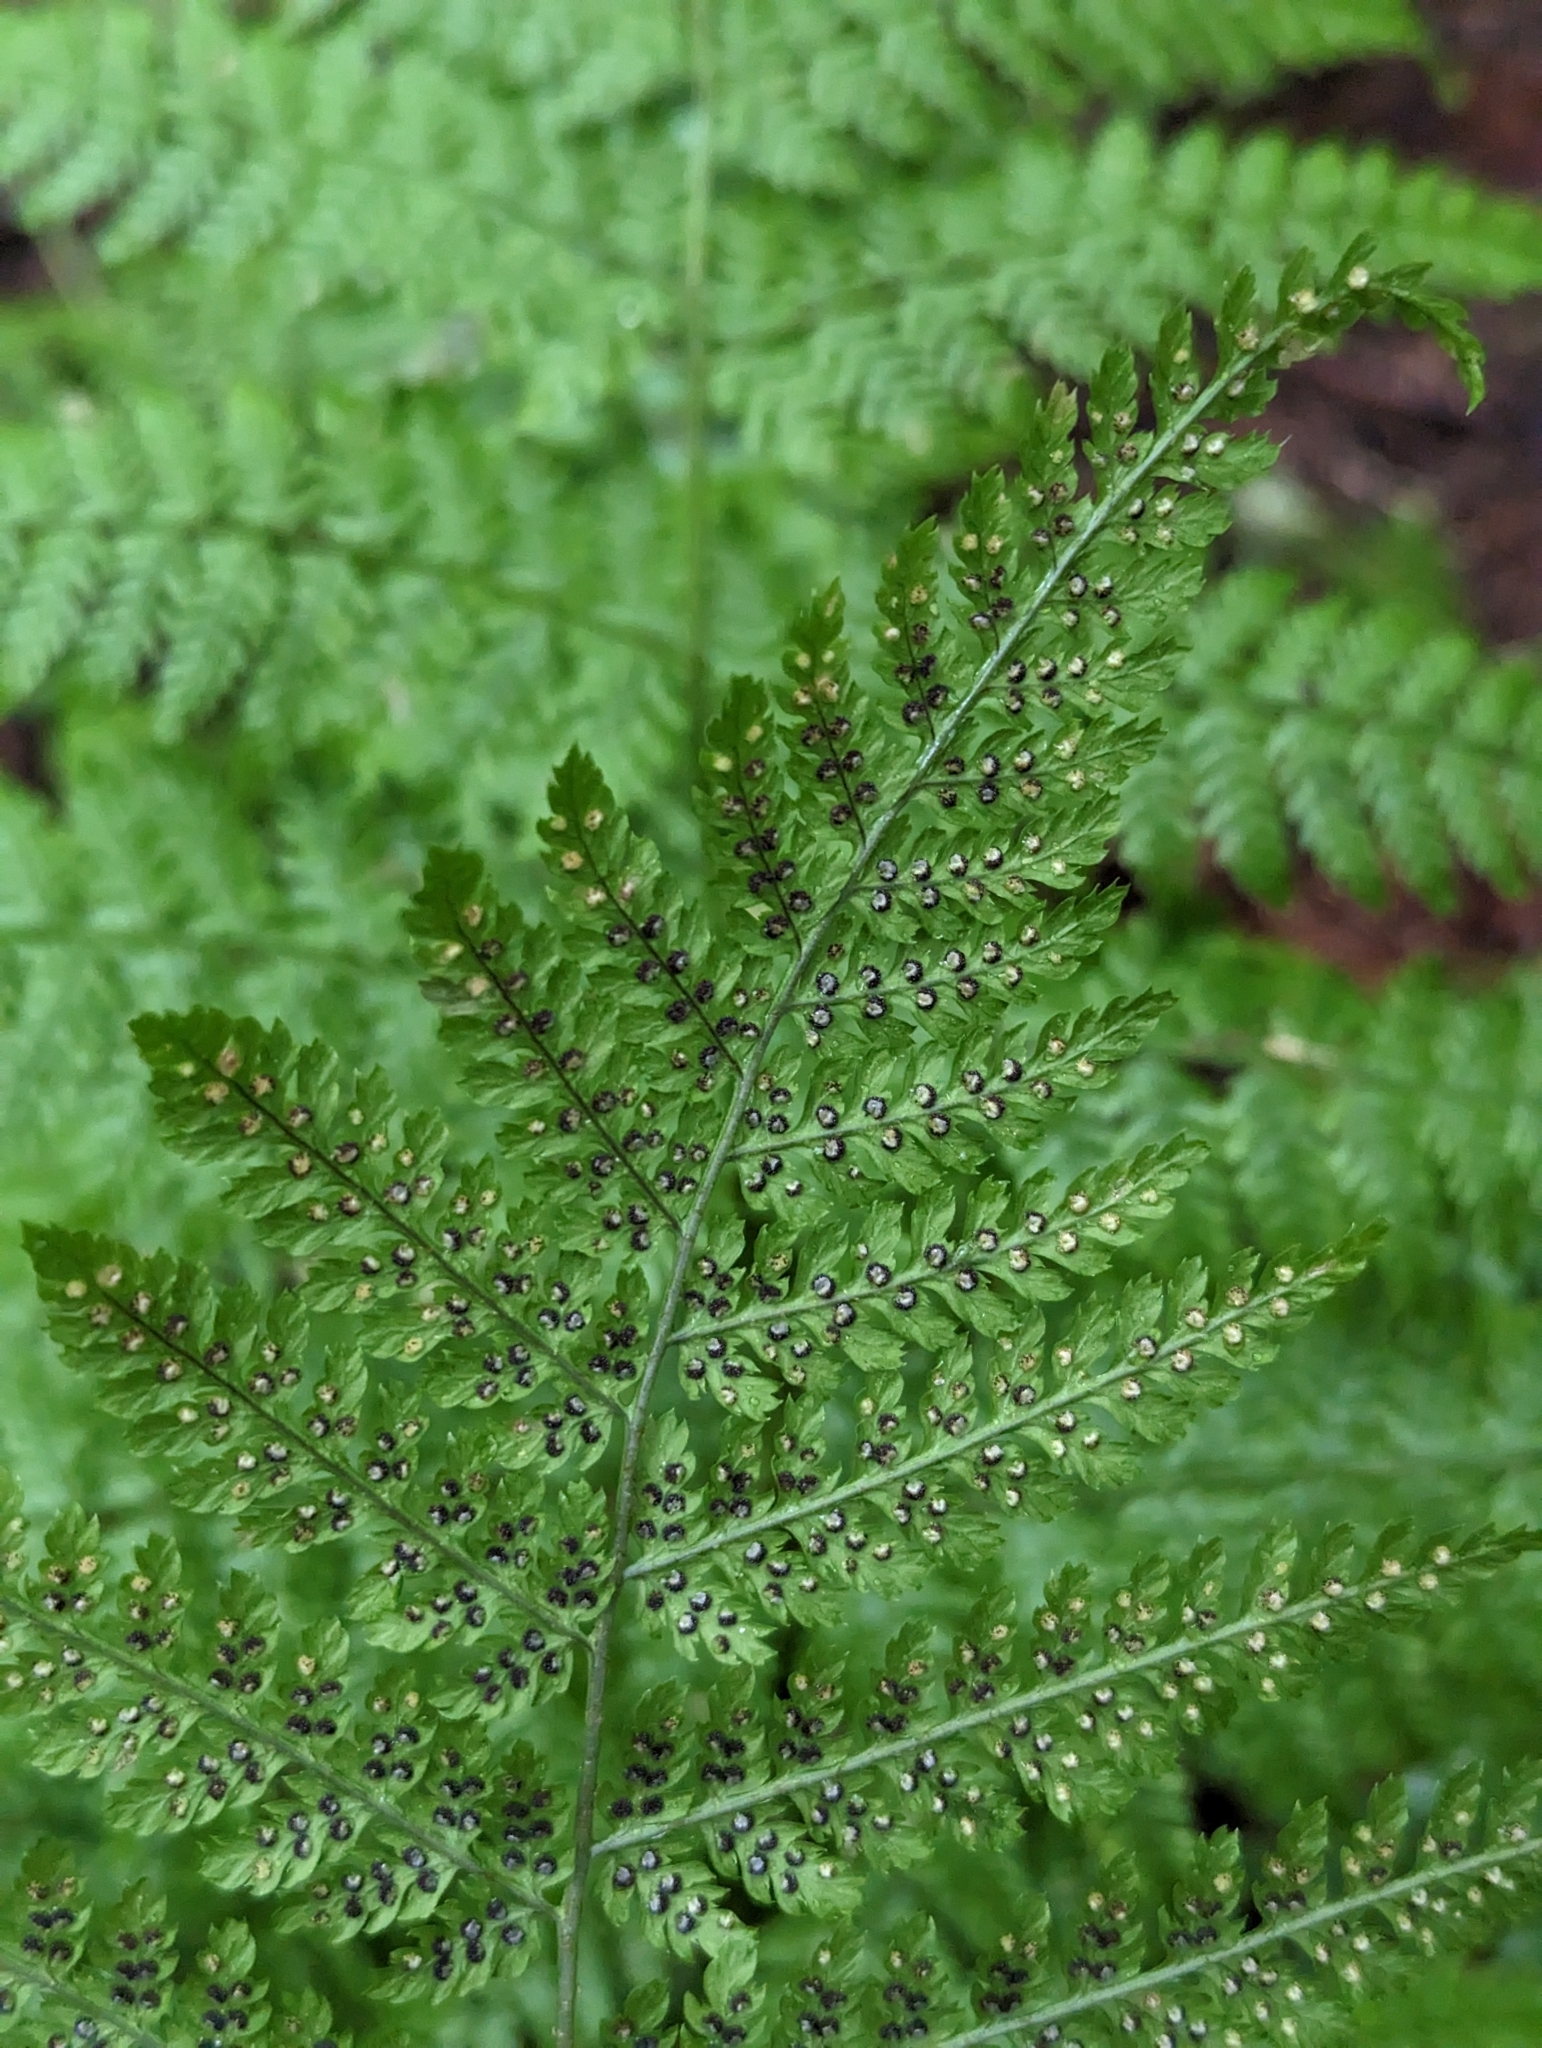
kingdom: Plantae
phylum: Tracheophyta
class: Polypodiopsida
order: Polypodiales
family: Dryopteridaceae
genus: Dryopteris
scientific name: Dryopteris expansa
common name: Northern buckler fern
